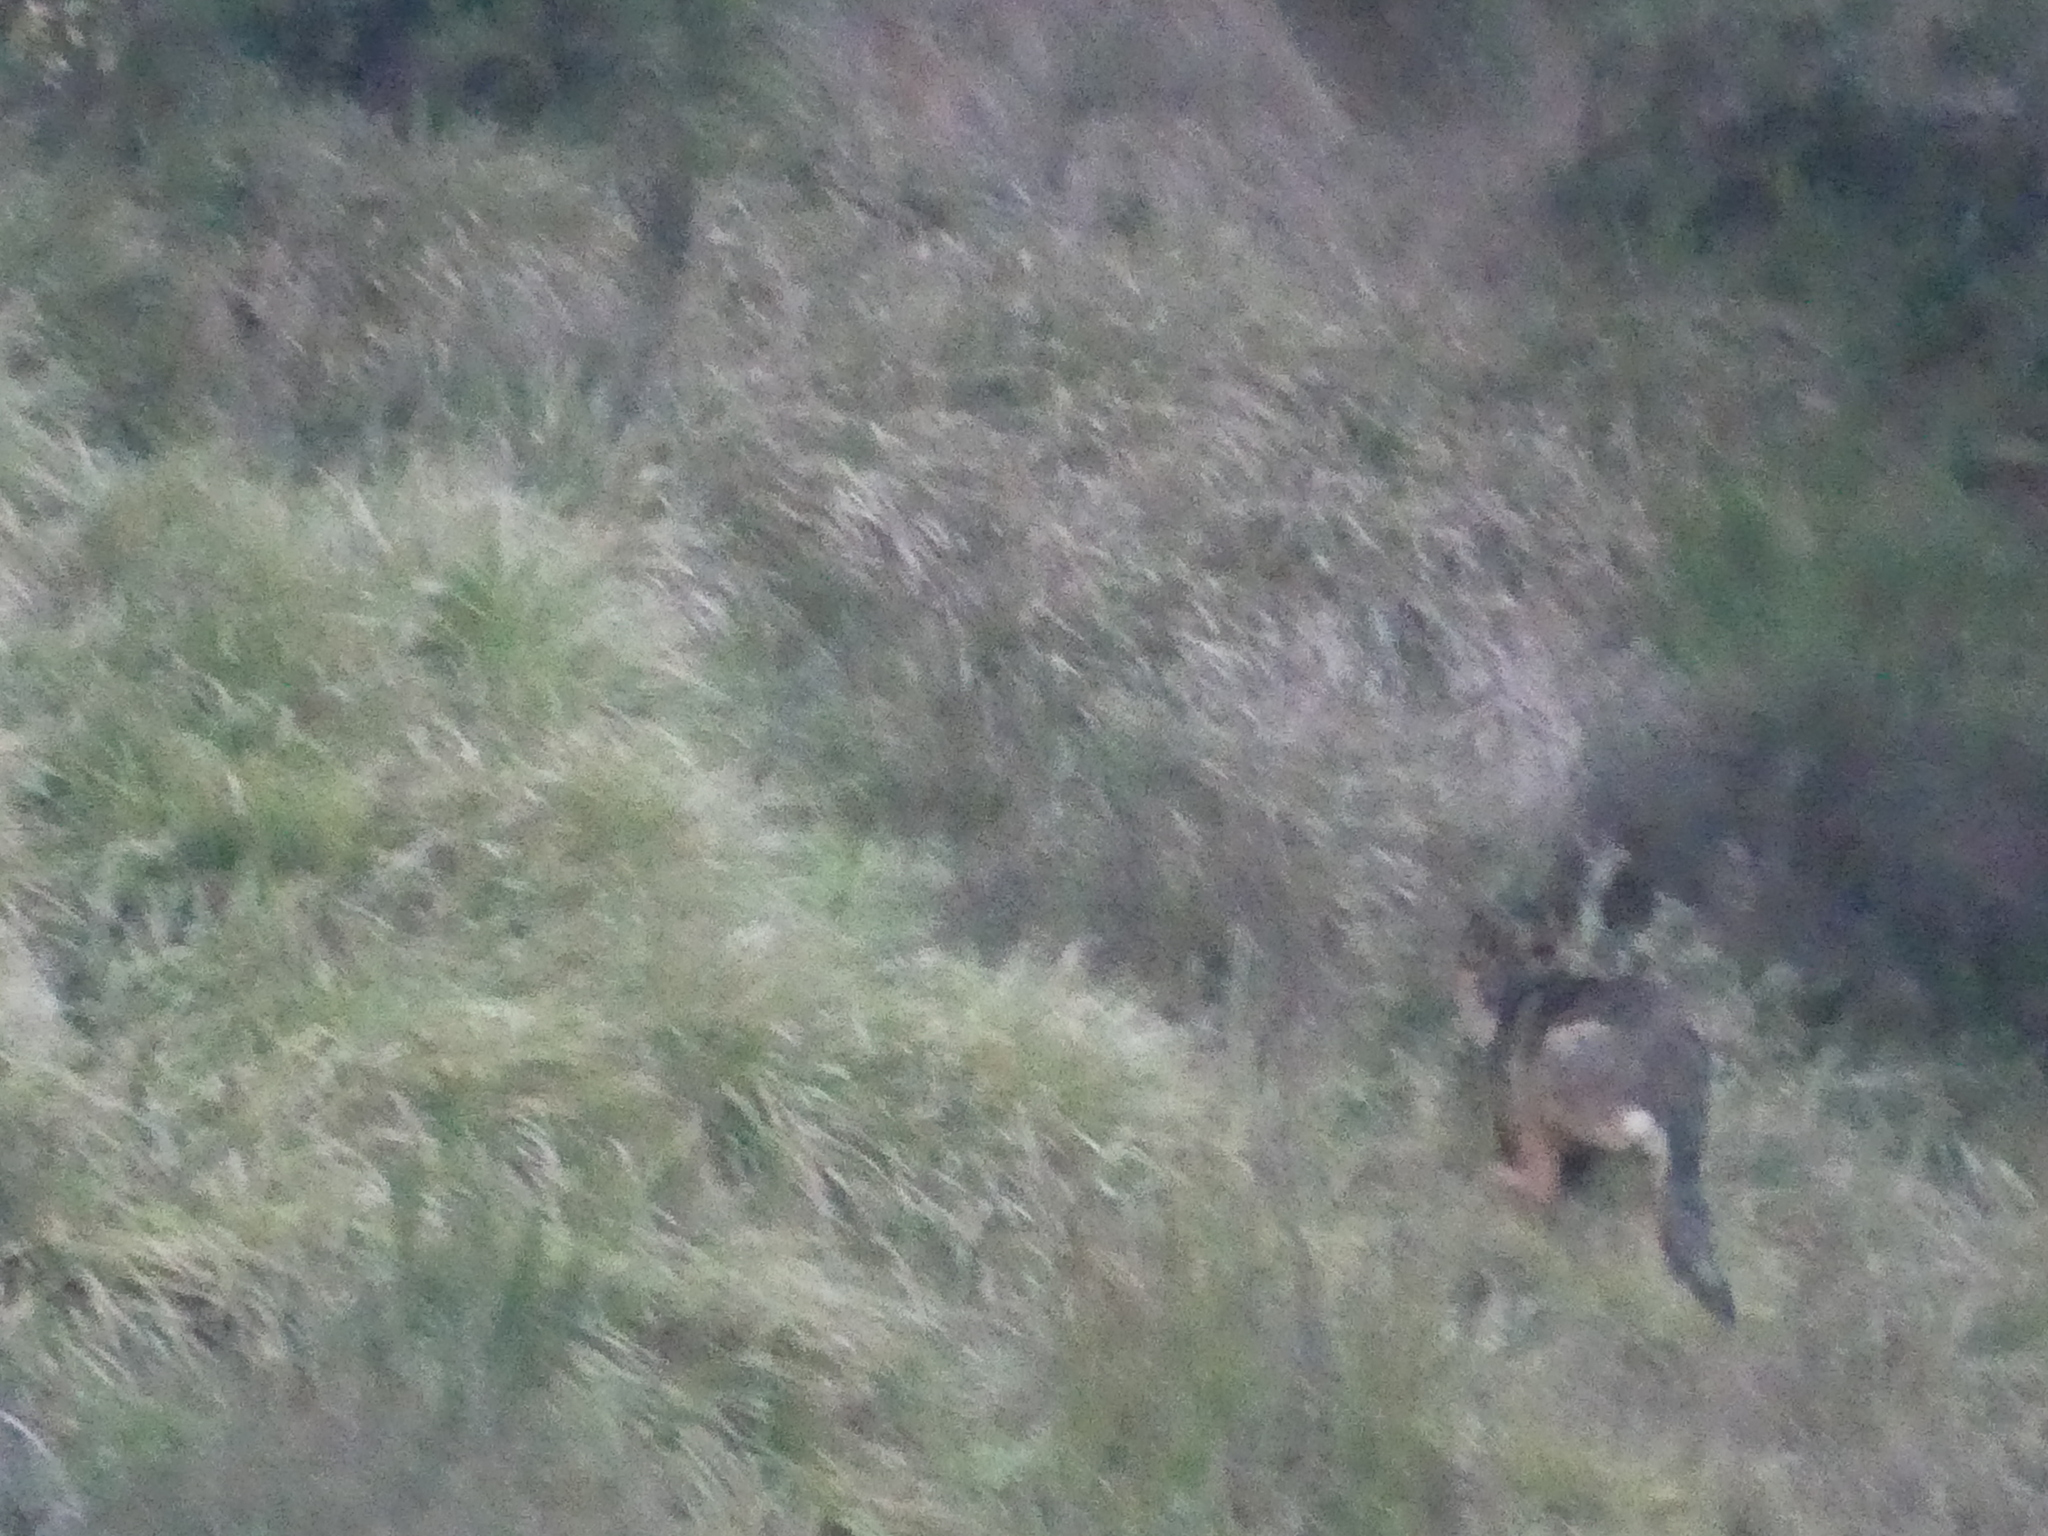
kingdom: Animalia
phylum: Chordata
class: Mammalia
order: Carnivora
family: Canidae
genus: Canis
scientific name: Canis lupus
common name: Gray wolf
